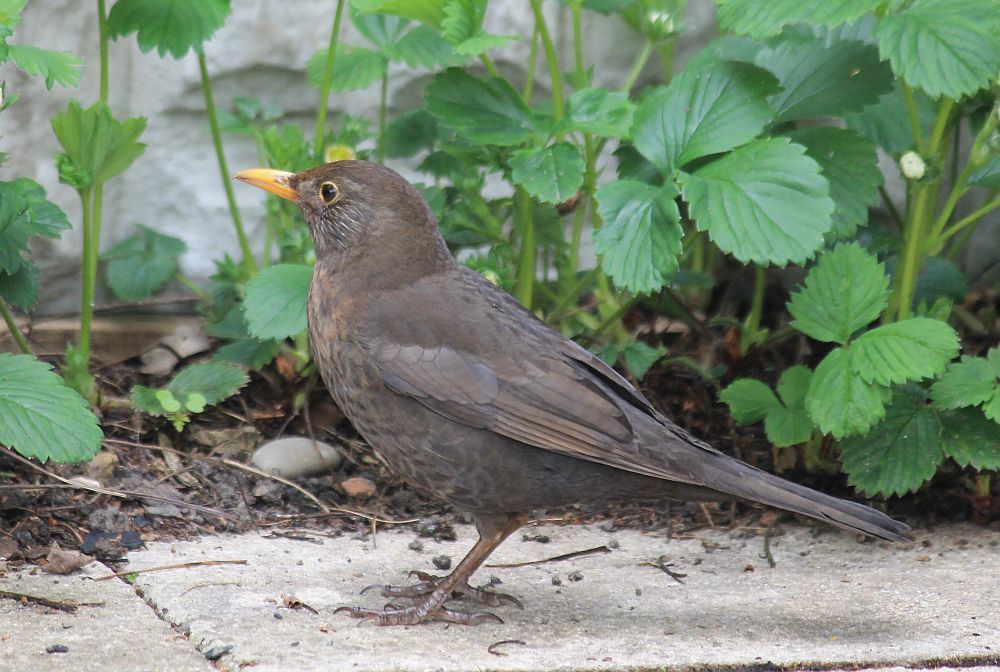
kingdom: Animalia
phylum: Chordata
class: Aves
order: Passeriformes
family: Turdidae
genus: Turdus
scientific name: Turdus merula
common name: Common blackbird
